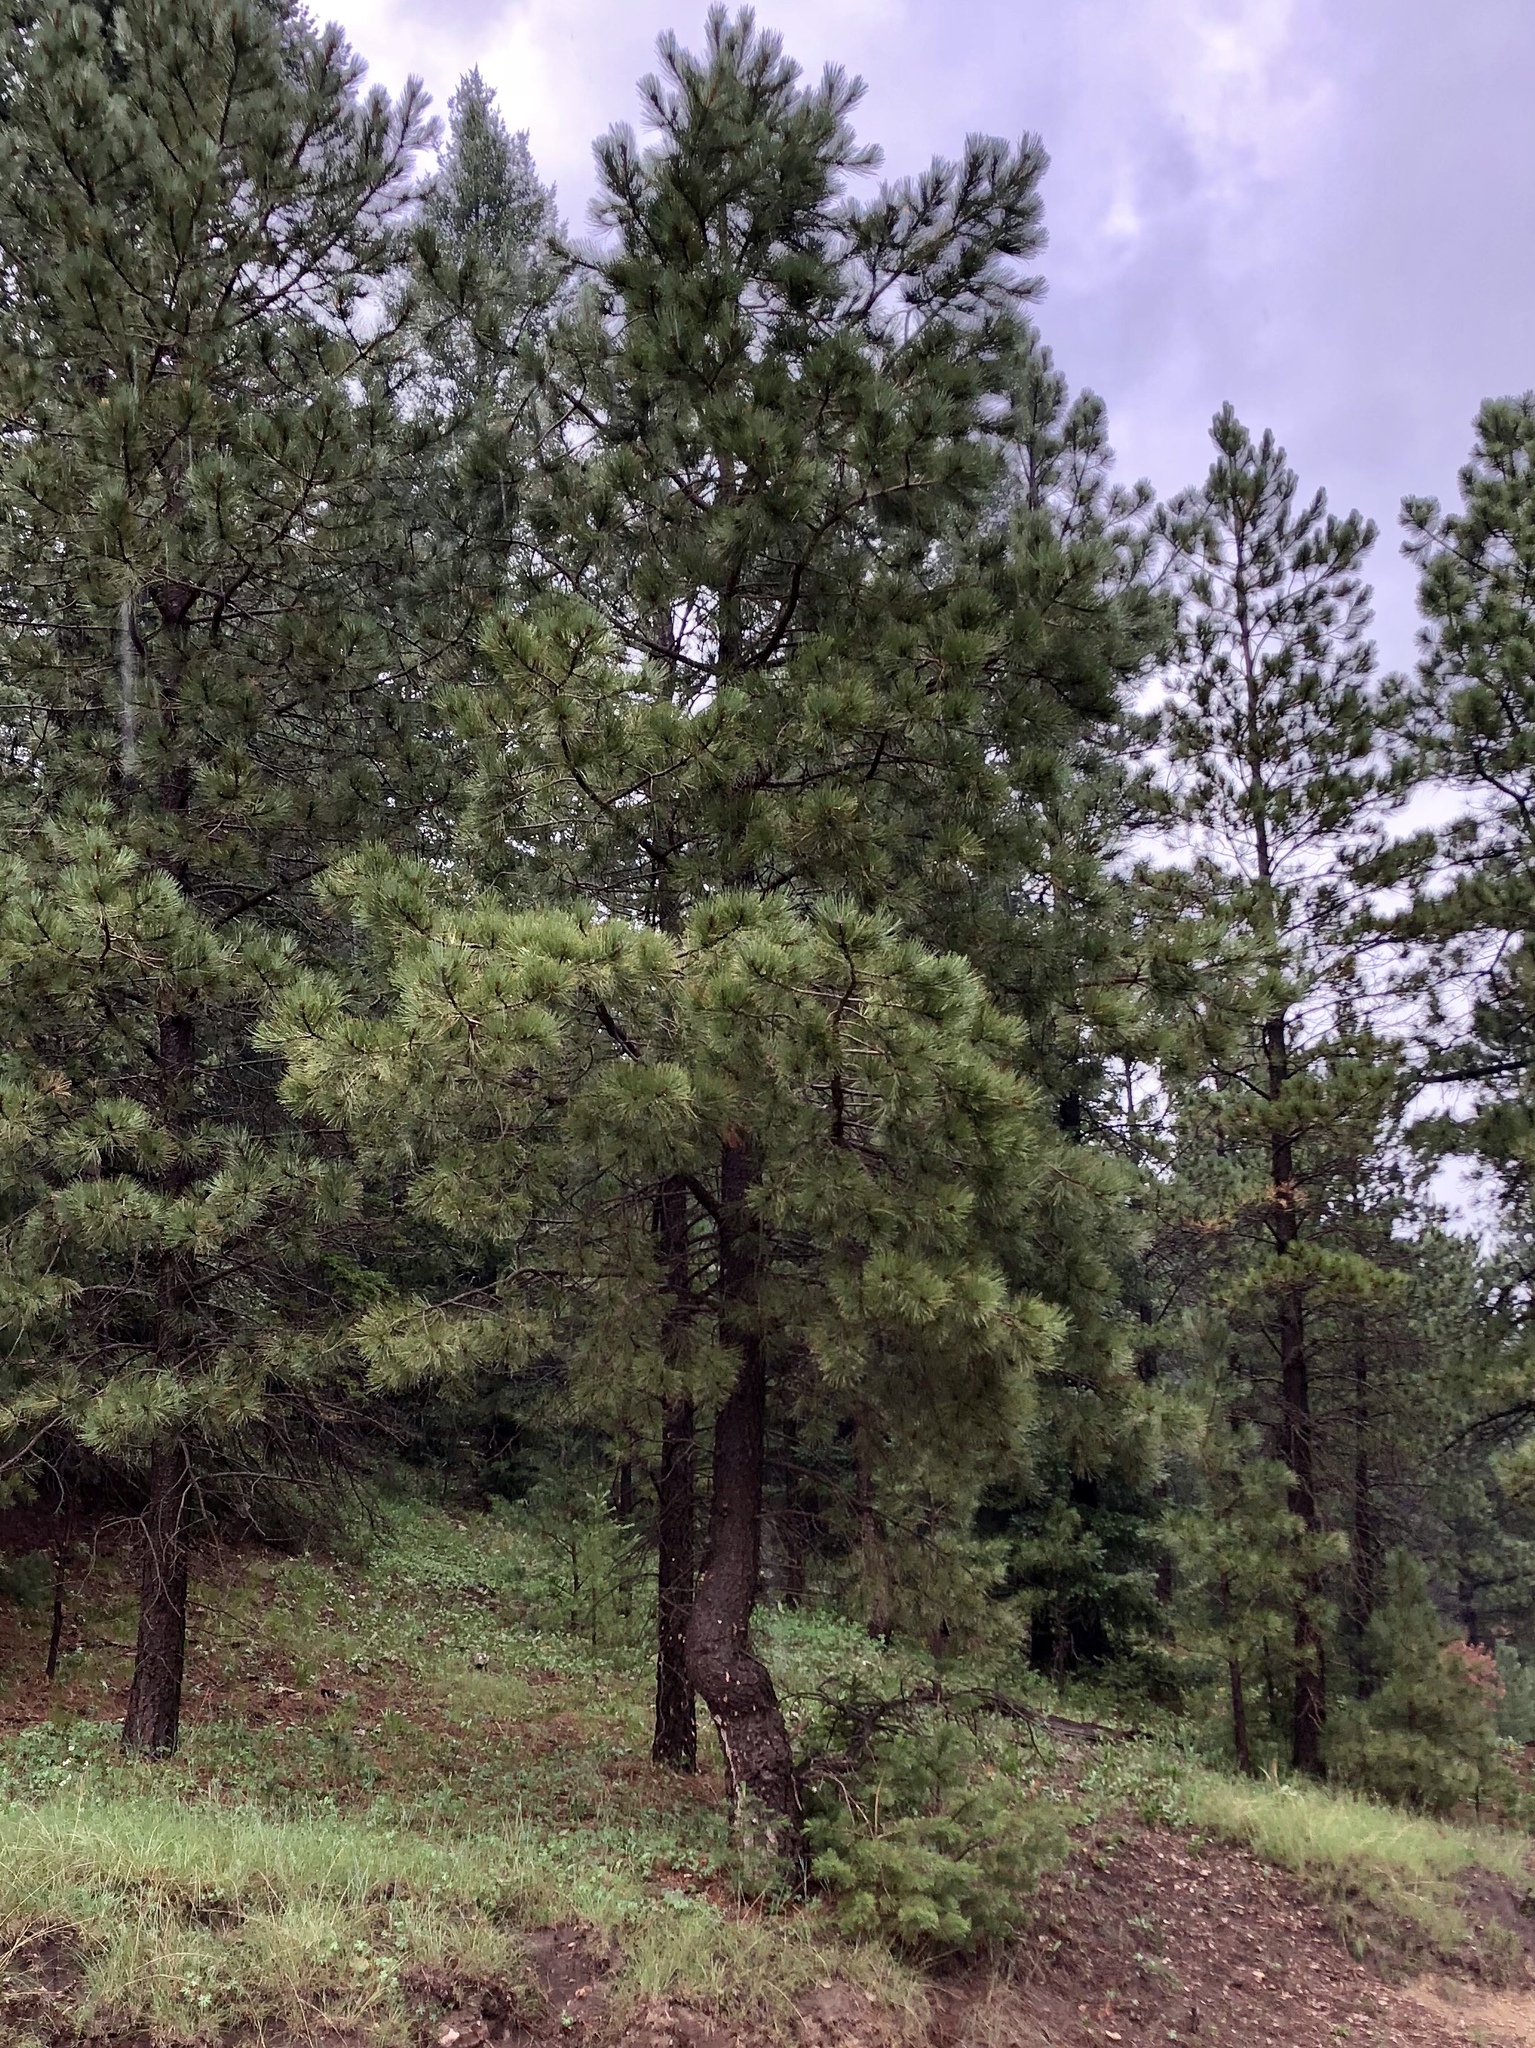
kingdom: Plantae
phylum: Tracheophyta
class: Pinopsida
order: Pinales
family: Pinaceae
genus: Pinus
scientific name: Pinus ponderosa
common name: Western yellow-pine
